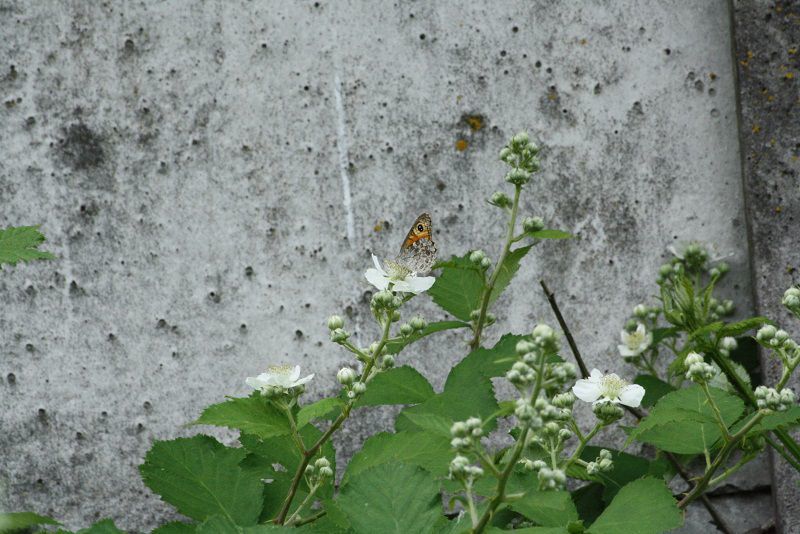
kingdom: Animalia
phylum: Arthropoda
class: Insecta
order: Lepidoptera
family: Nymphalidae
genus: Pararge
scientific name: Pararge Lasiommata maera
